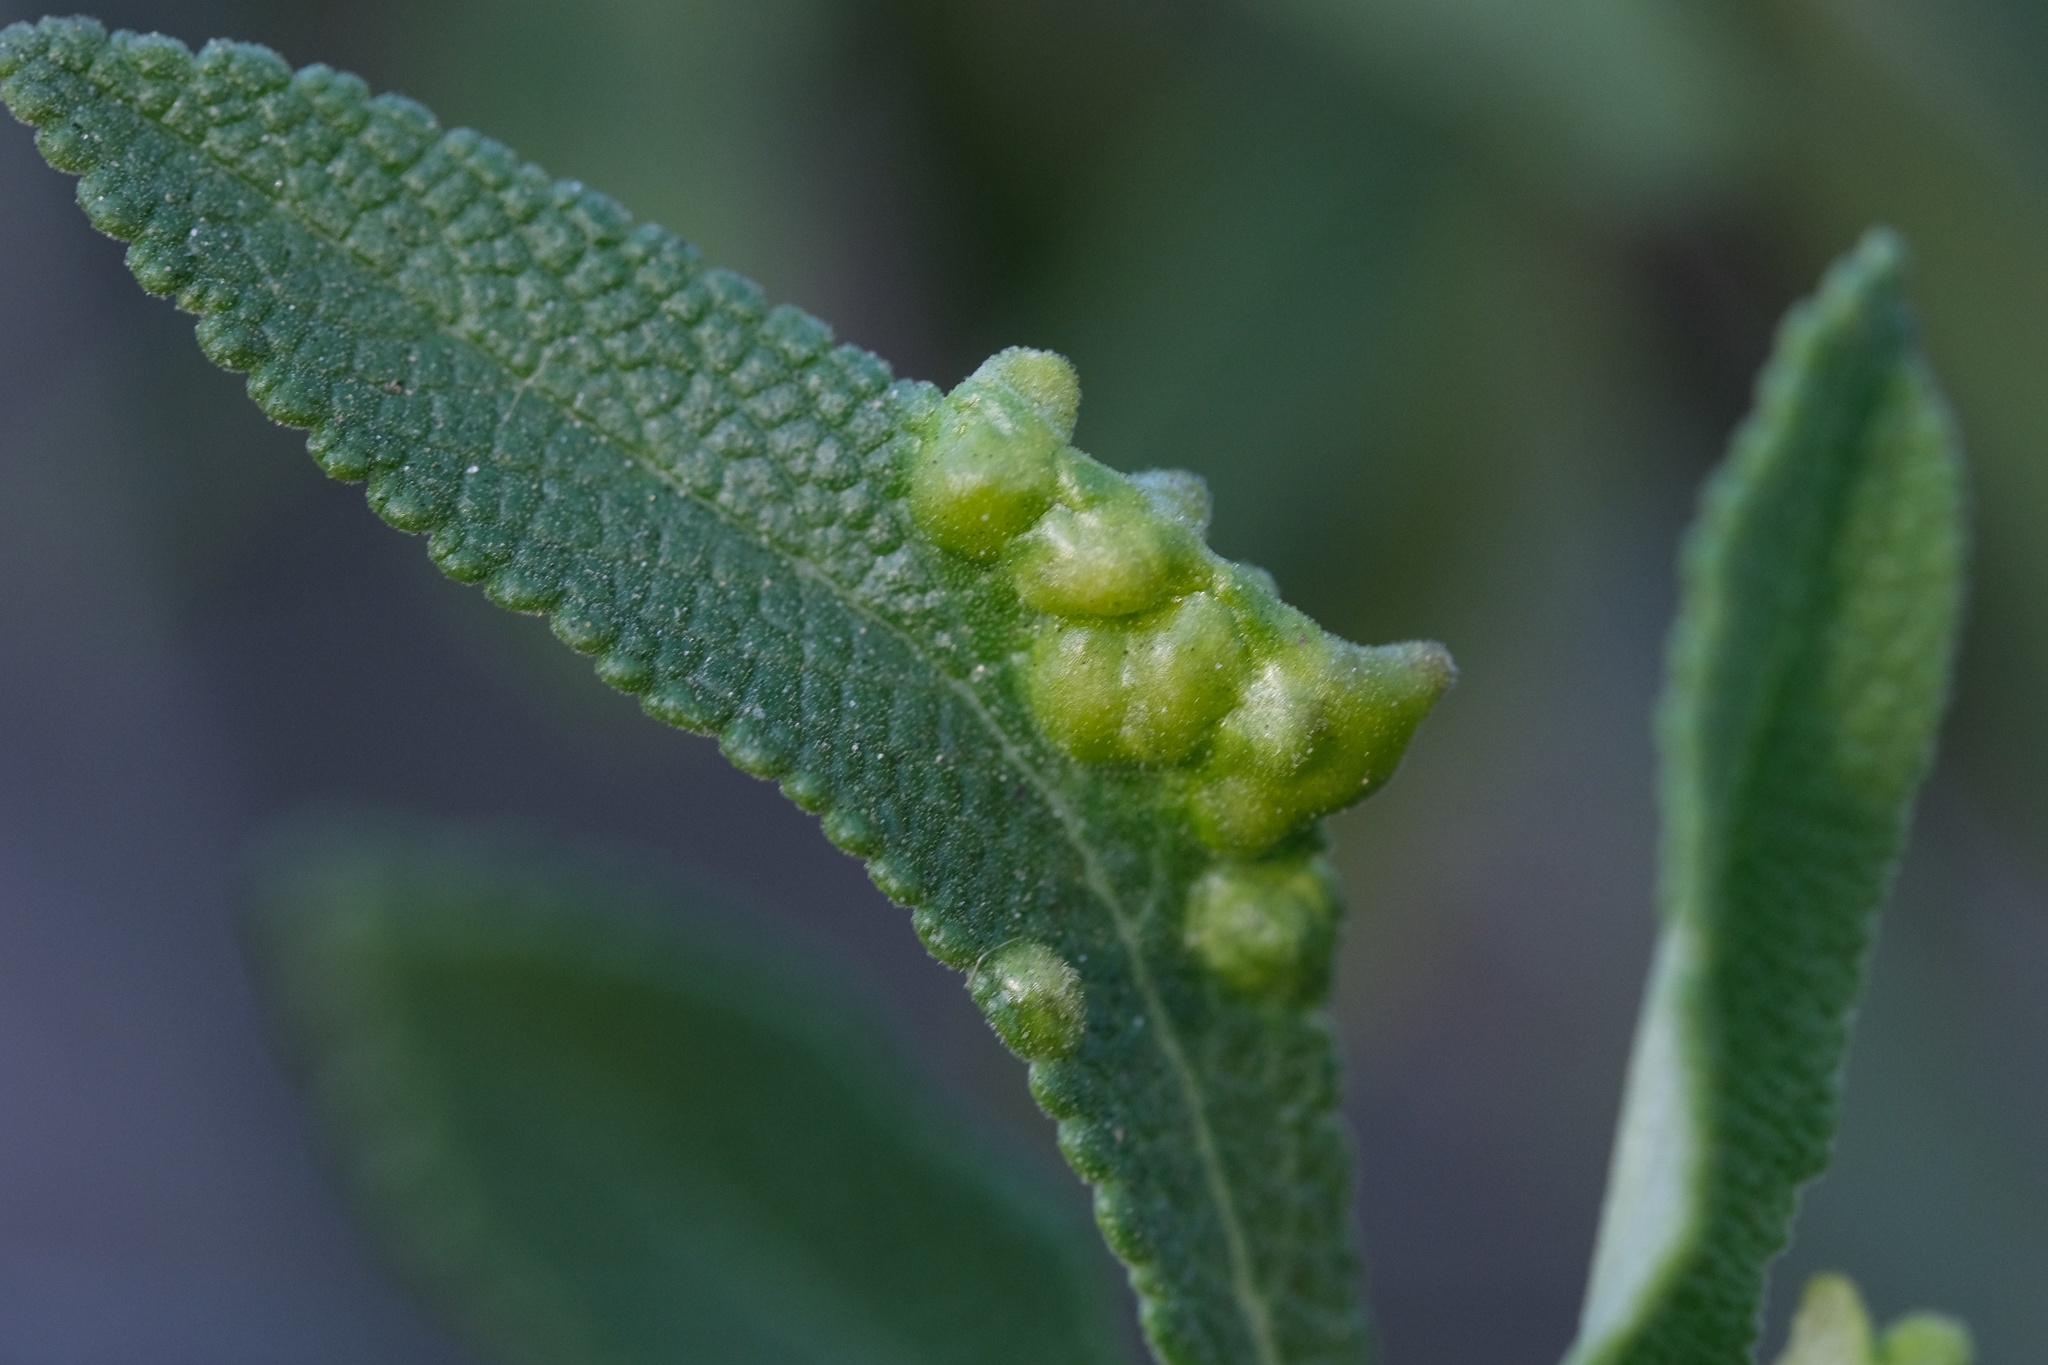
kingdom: Animalia
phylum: Arthropoda
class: Insecta
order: Diptera
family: Cecidomyiidae
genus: Rhopalomyia
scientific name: Rhopalomyia audibertiae
